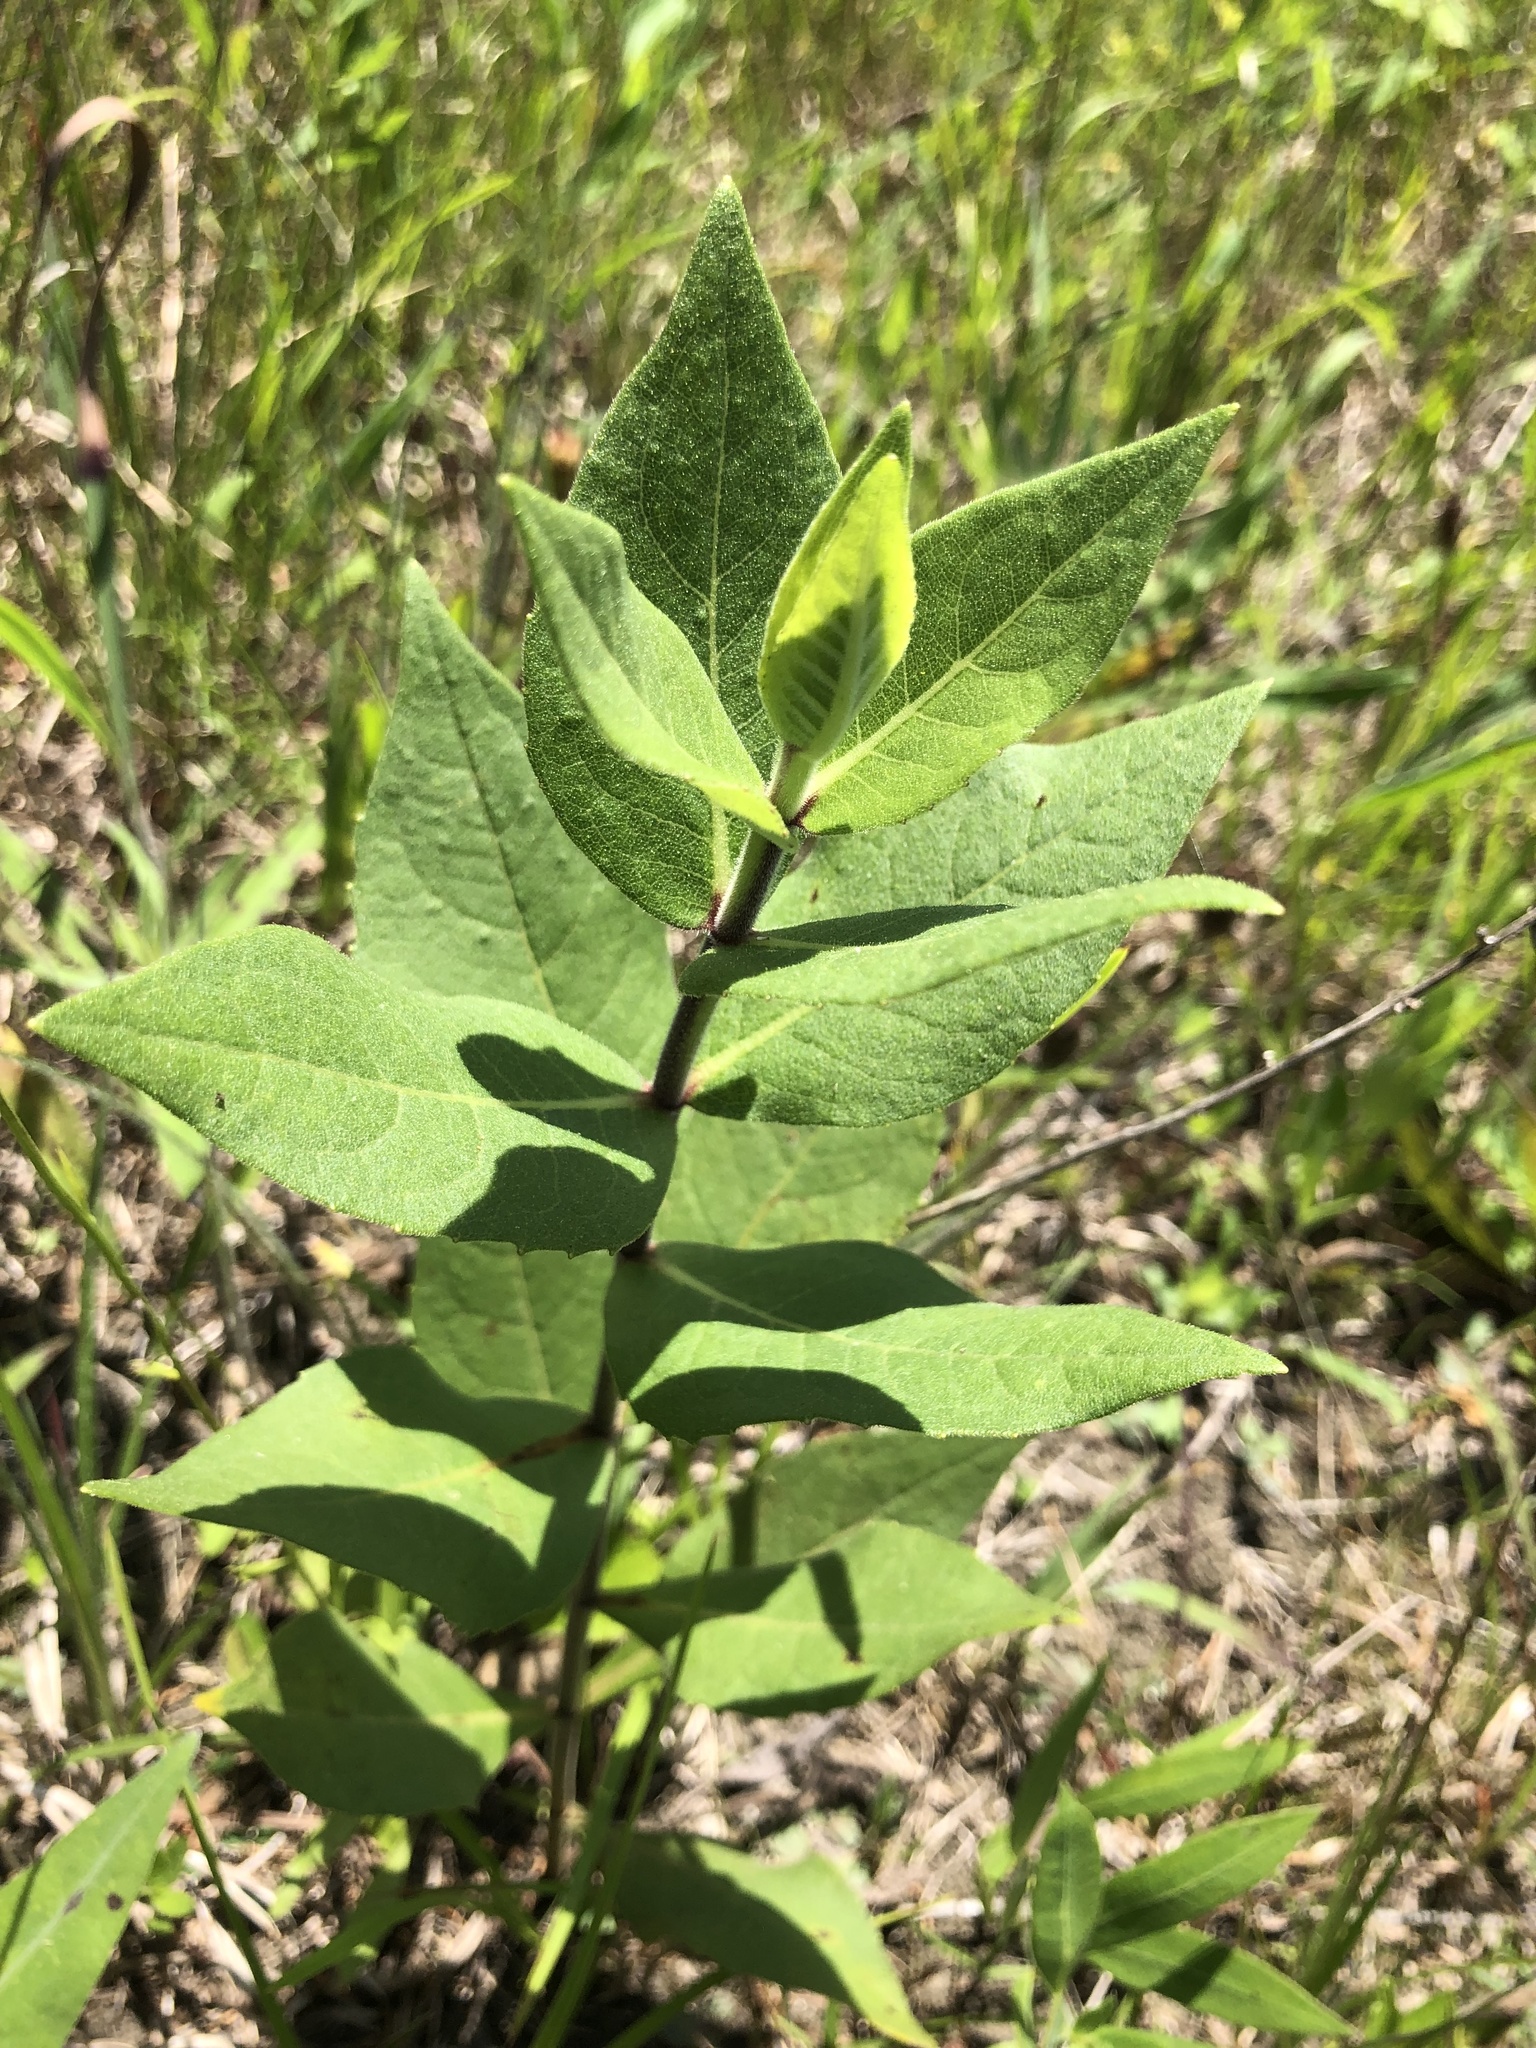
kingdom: Plantae
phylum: Tracheophyta
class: Magnoliopsida
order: Asterales
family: Asteraceae
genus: Silphium
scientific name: Silphium integrifolium
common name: Whole-leaf rosinweed
